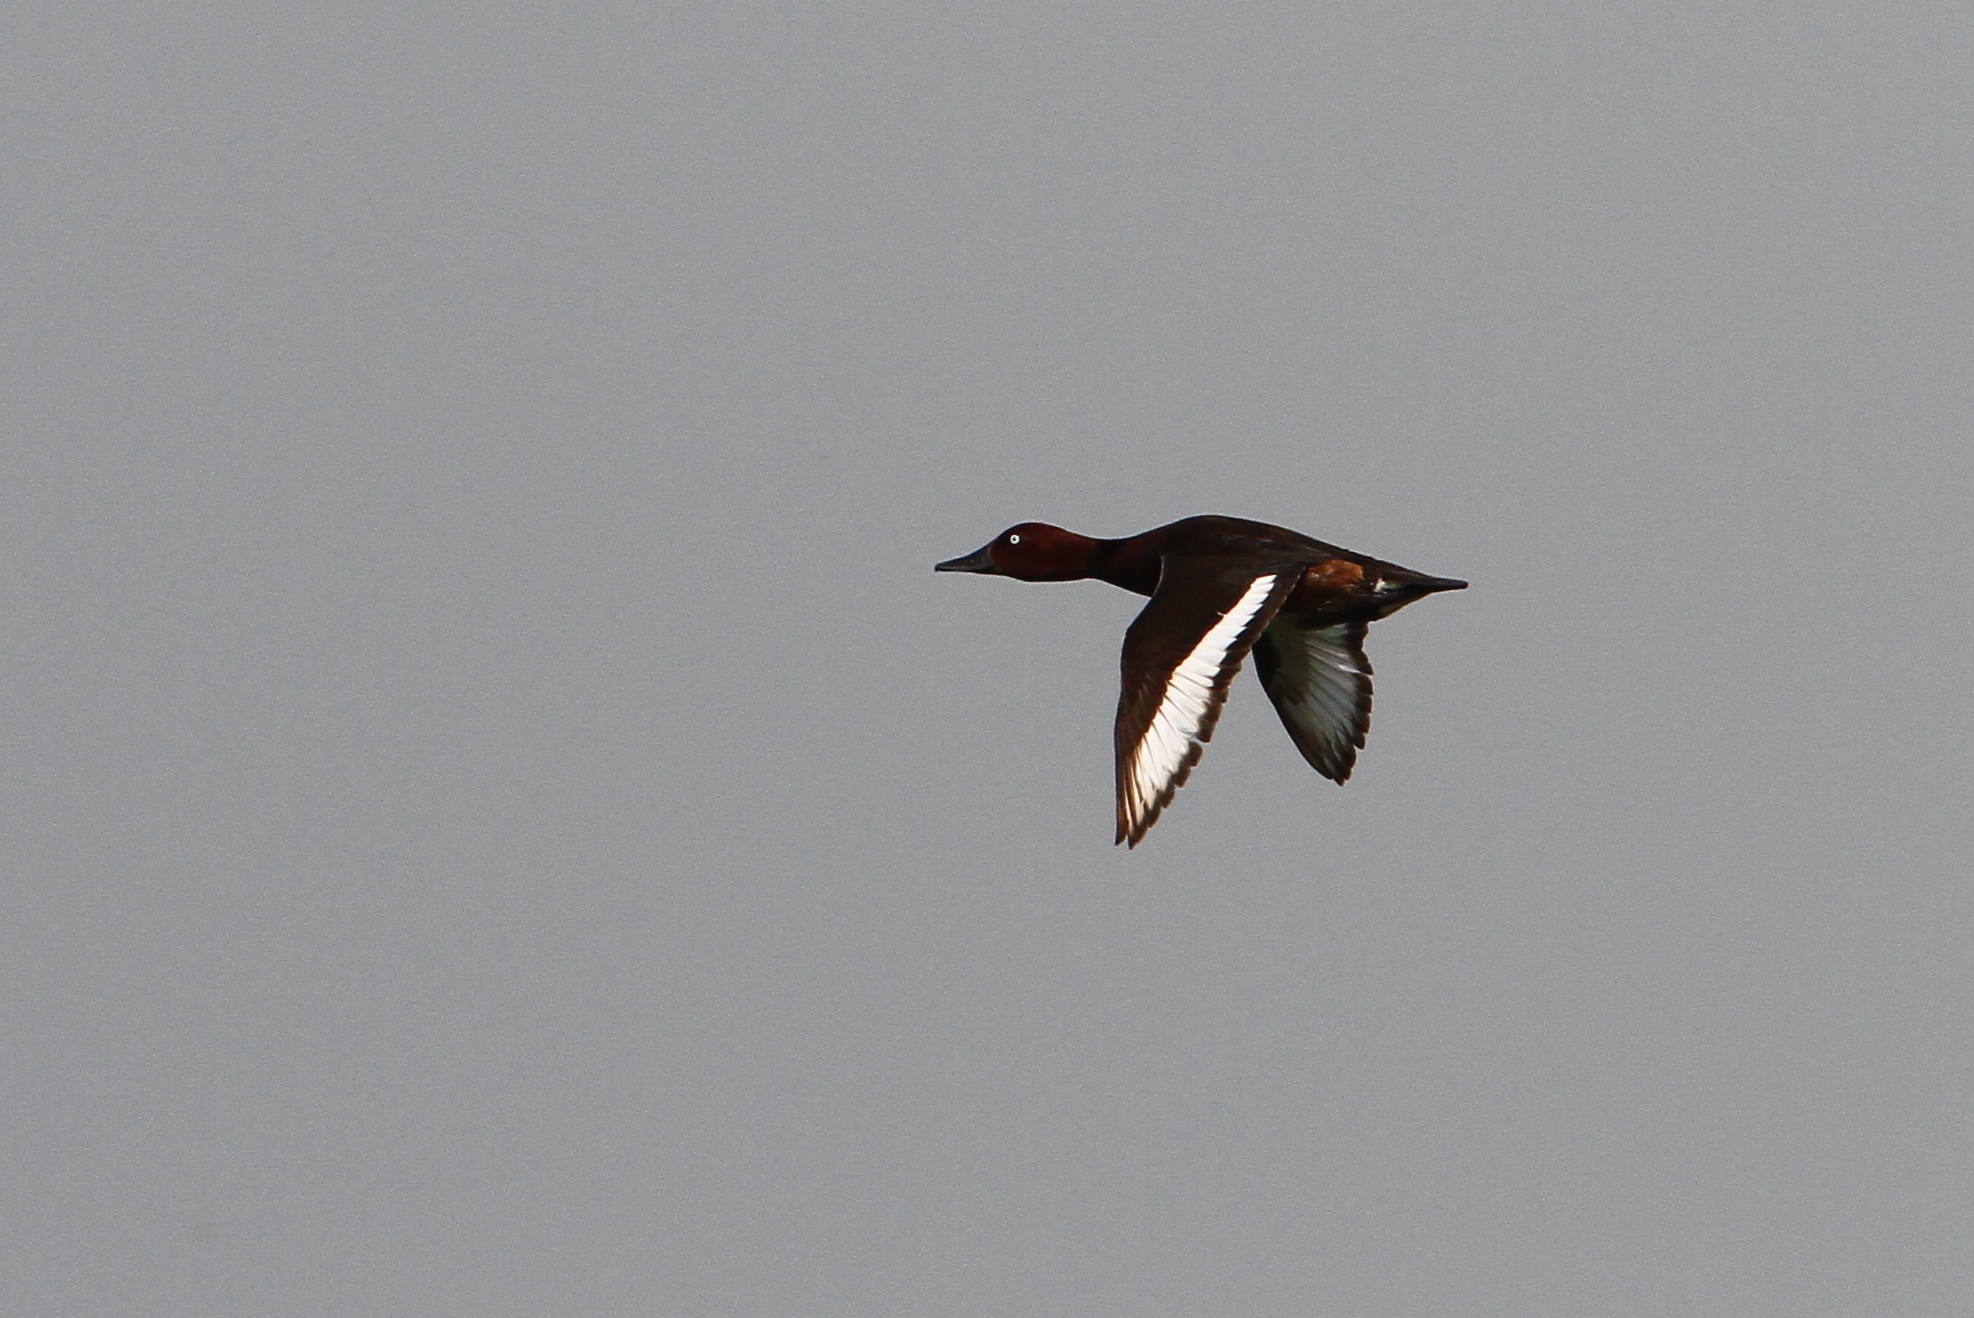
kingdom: Animalia
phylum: Chordata
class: Aves
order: Anseriformes
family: Anatidae
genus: Aythya
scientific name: Aythya nyroca
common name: Ferruginous duck
